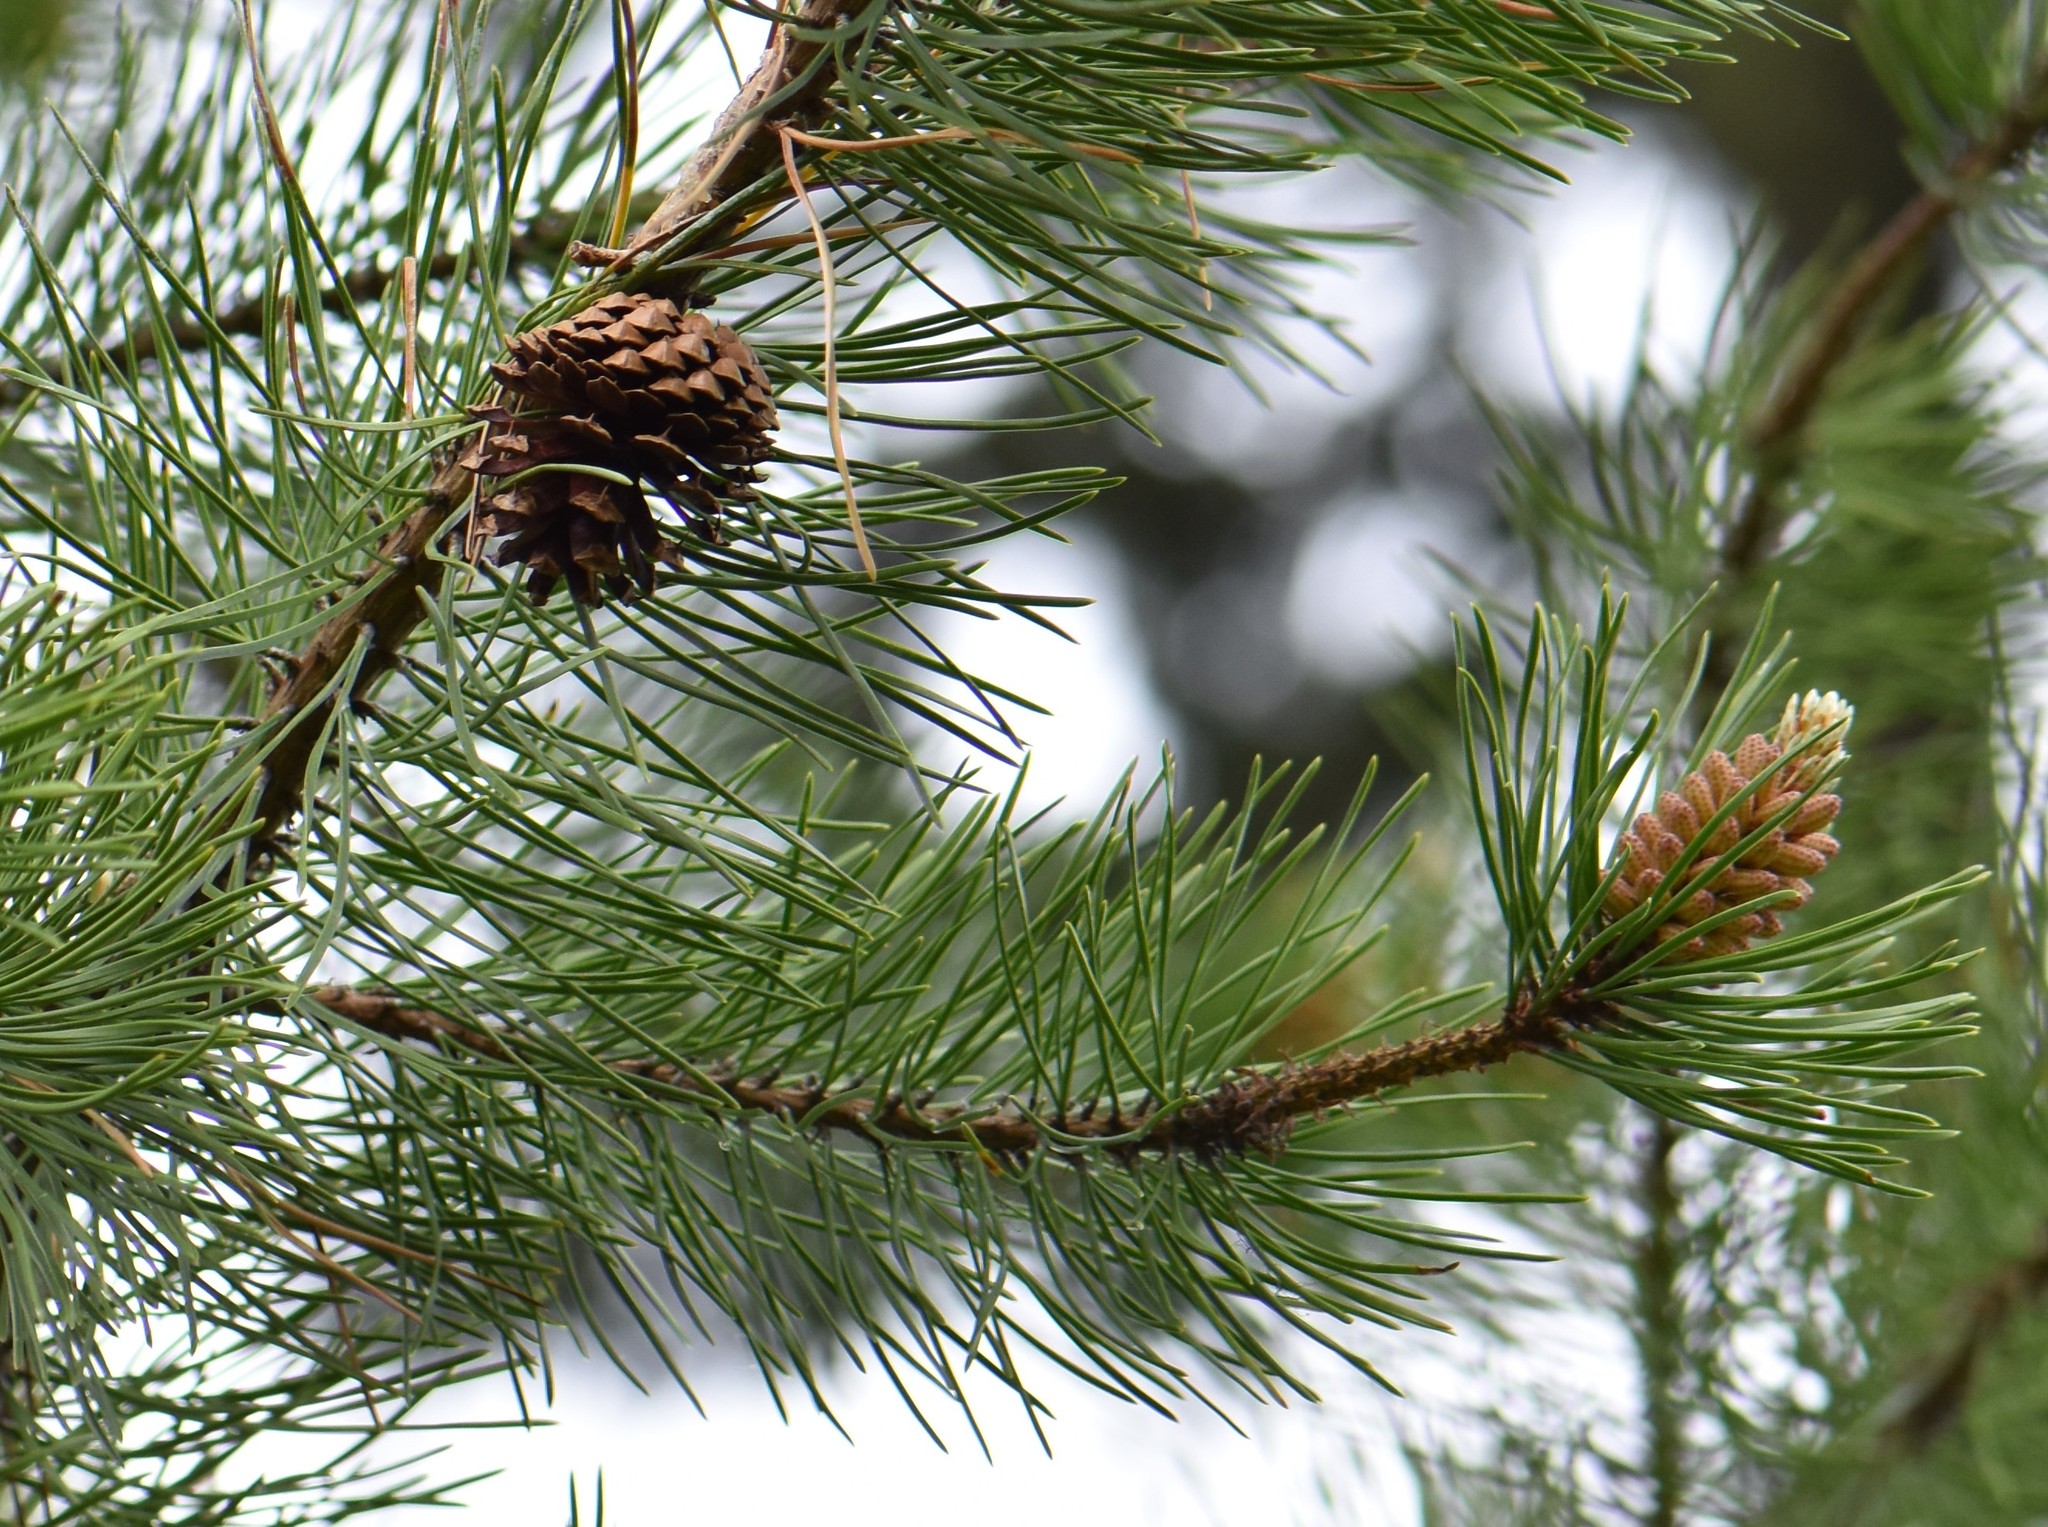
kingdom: Plantae
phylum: Tracheophyta
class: Pinopsida
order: Pinales
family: Pinaceae
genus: Pinus
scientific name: Pinus contorta
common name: Lodgepole pine
